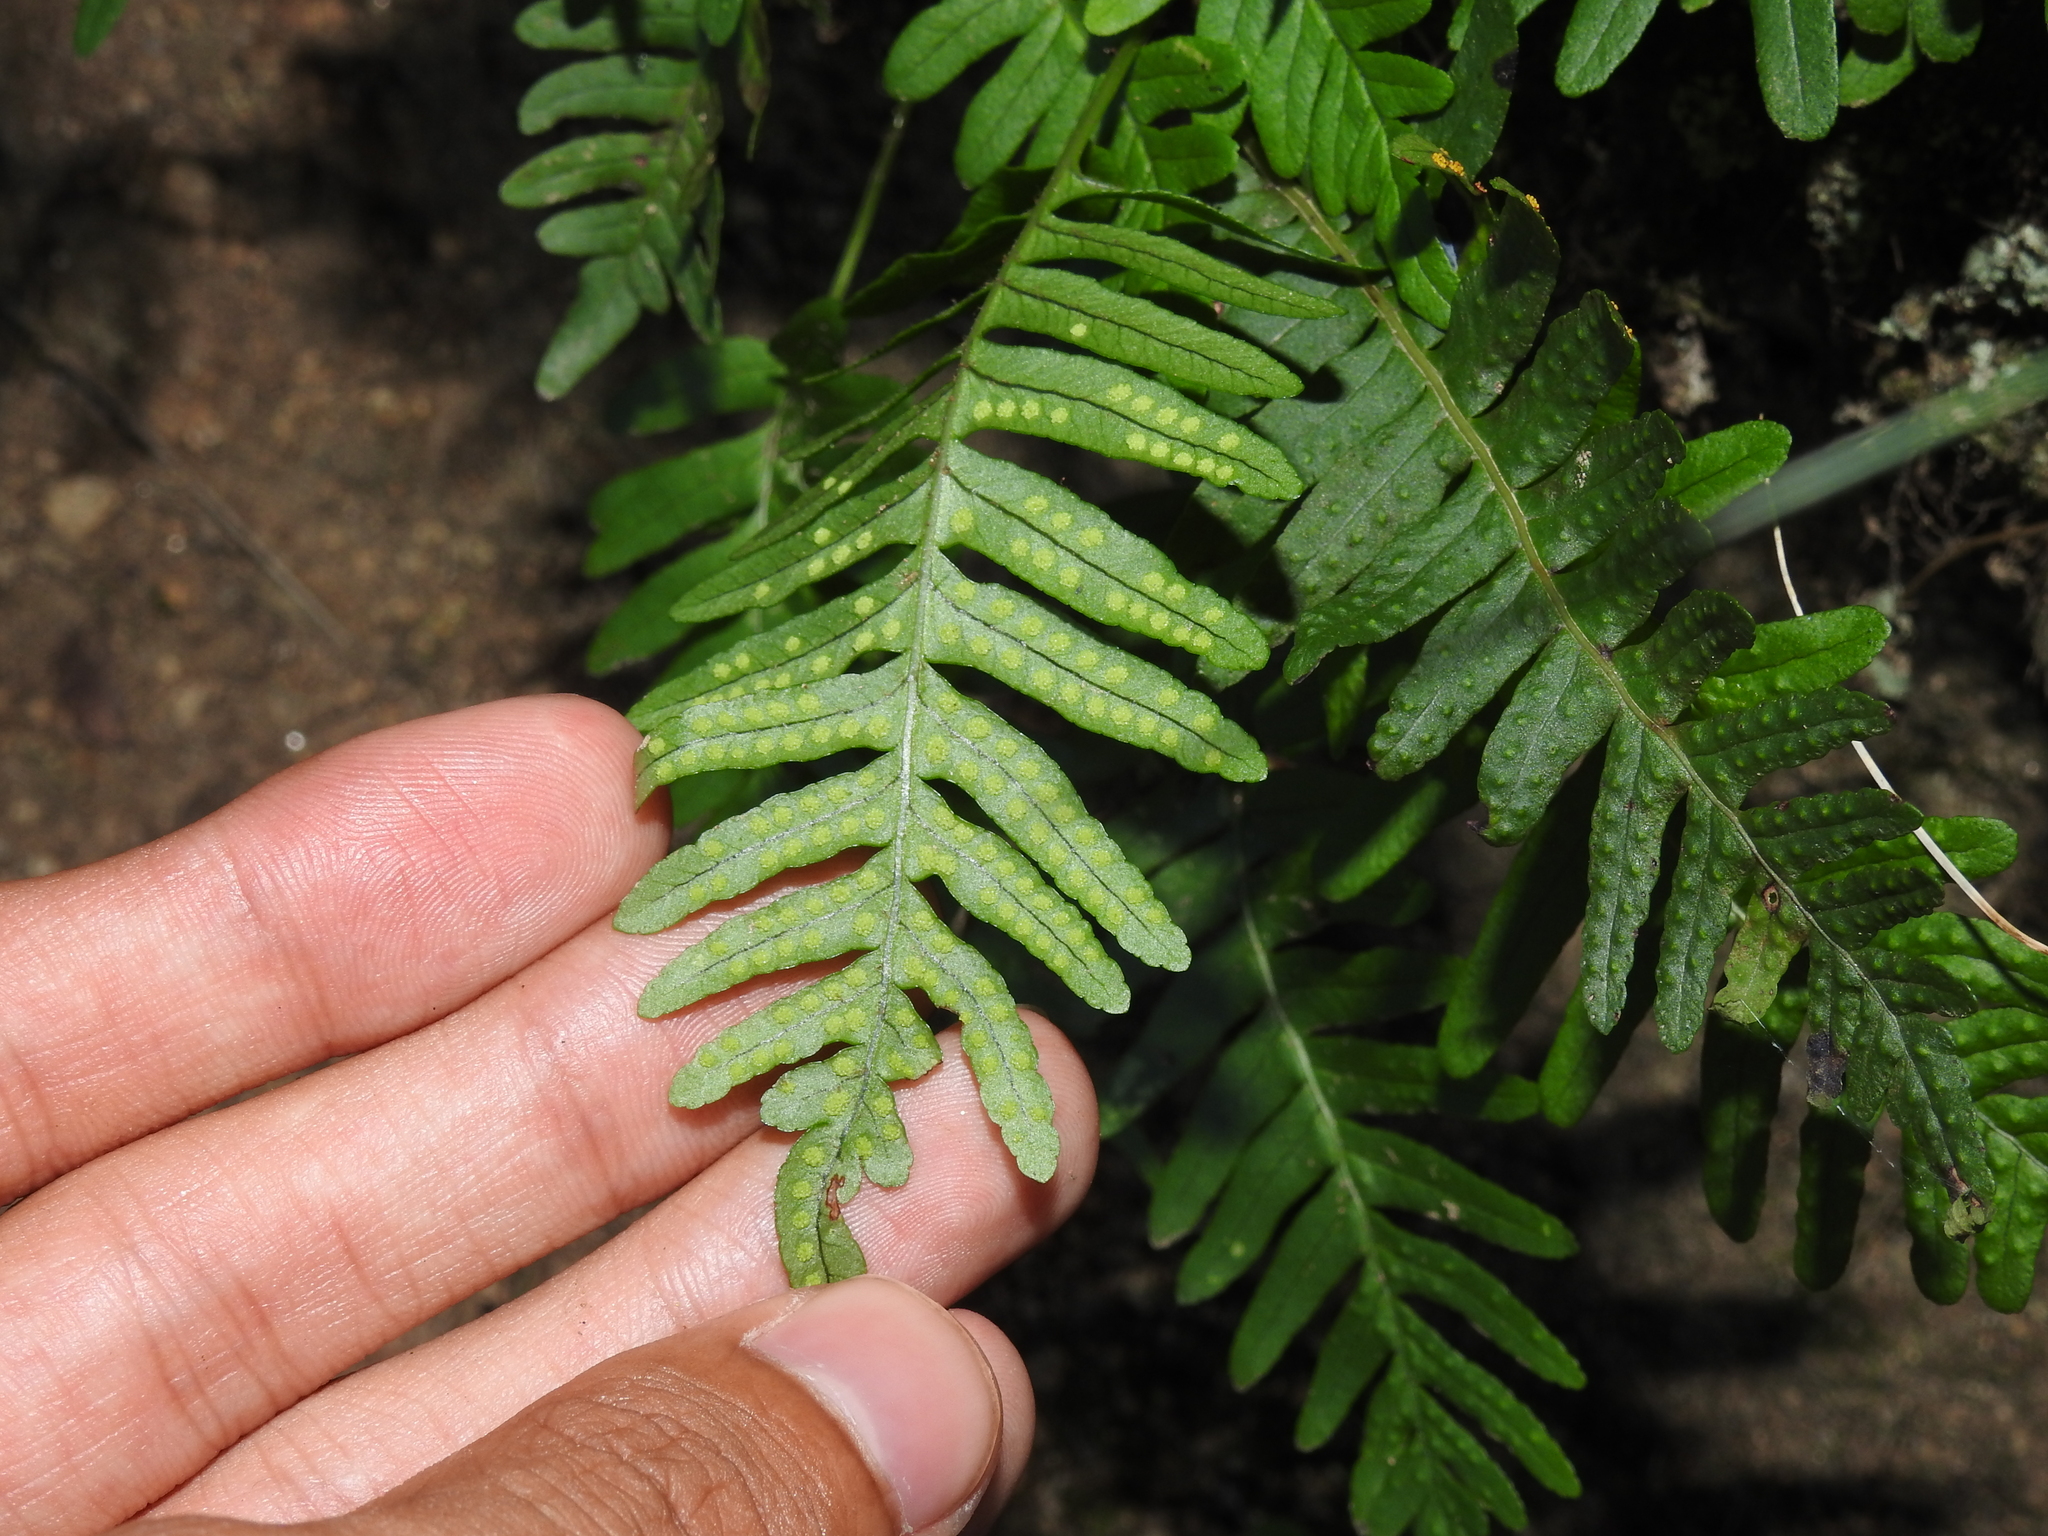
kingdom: Plantae
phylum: Tracheophyta
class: Polypodiopsida
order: Polypodiales
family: Polypodiaceae
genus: Polypodium
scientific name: Polypodium vulgare
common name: Common polypody
